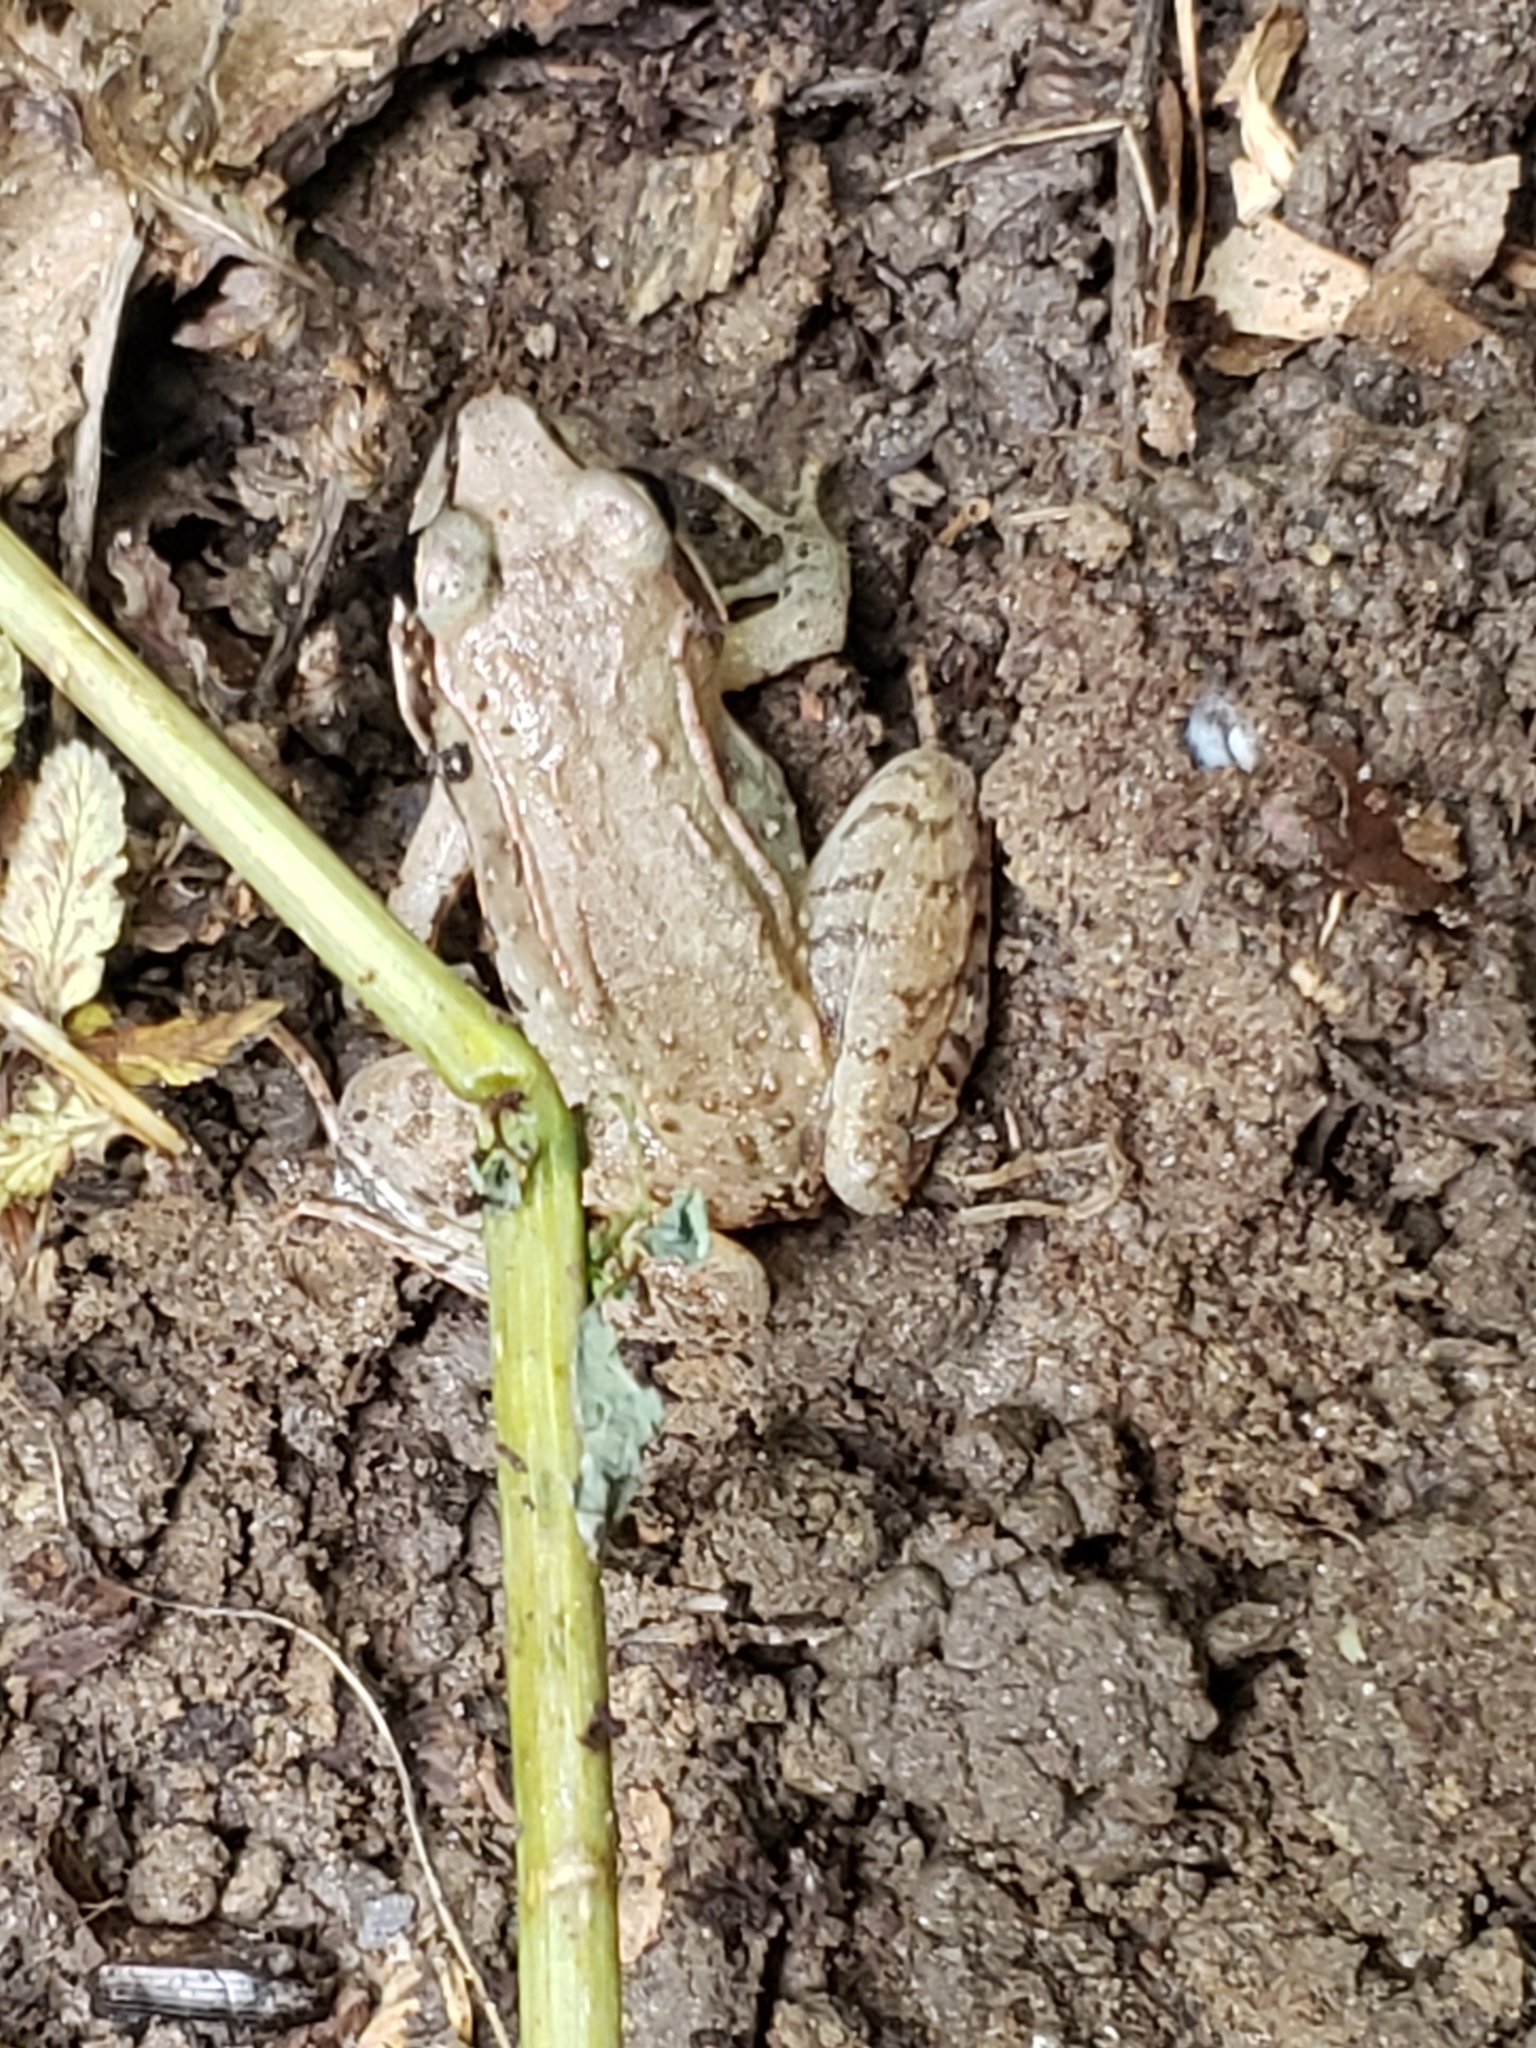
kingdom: Animalia
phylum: Chordata
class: Amphibia
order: Anura
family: Ranidae
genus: Lithobates
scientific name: Lithobates sylvaticus
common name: Wood frog
